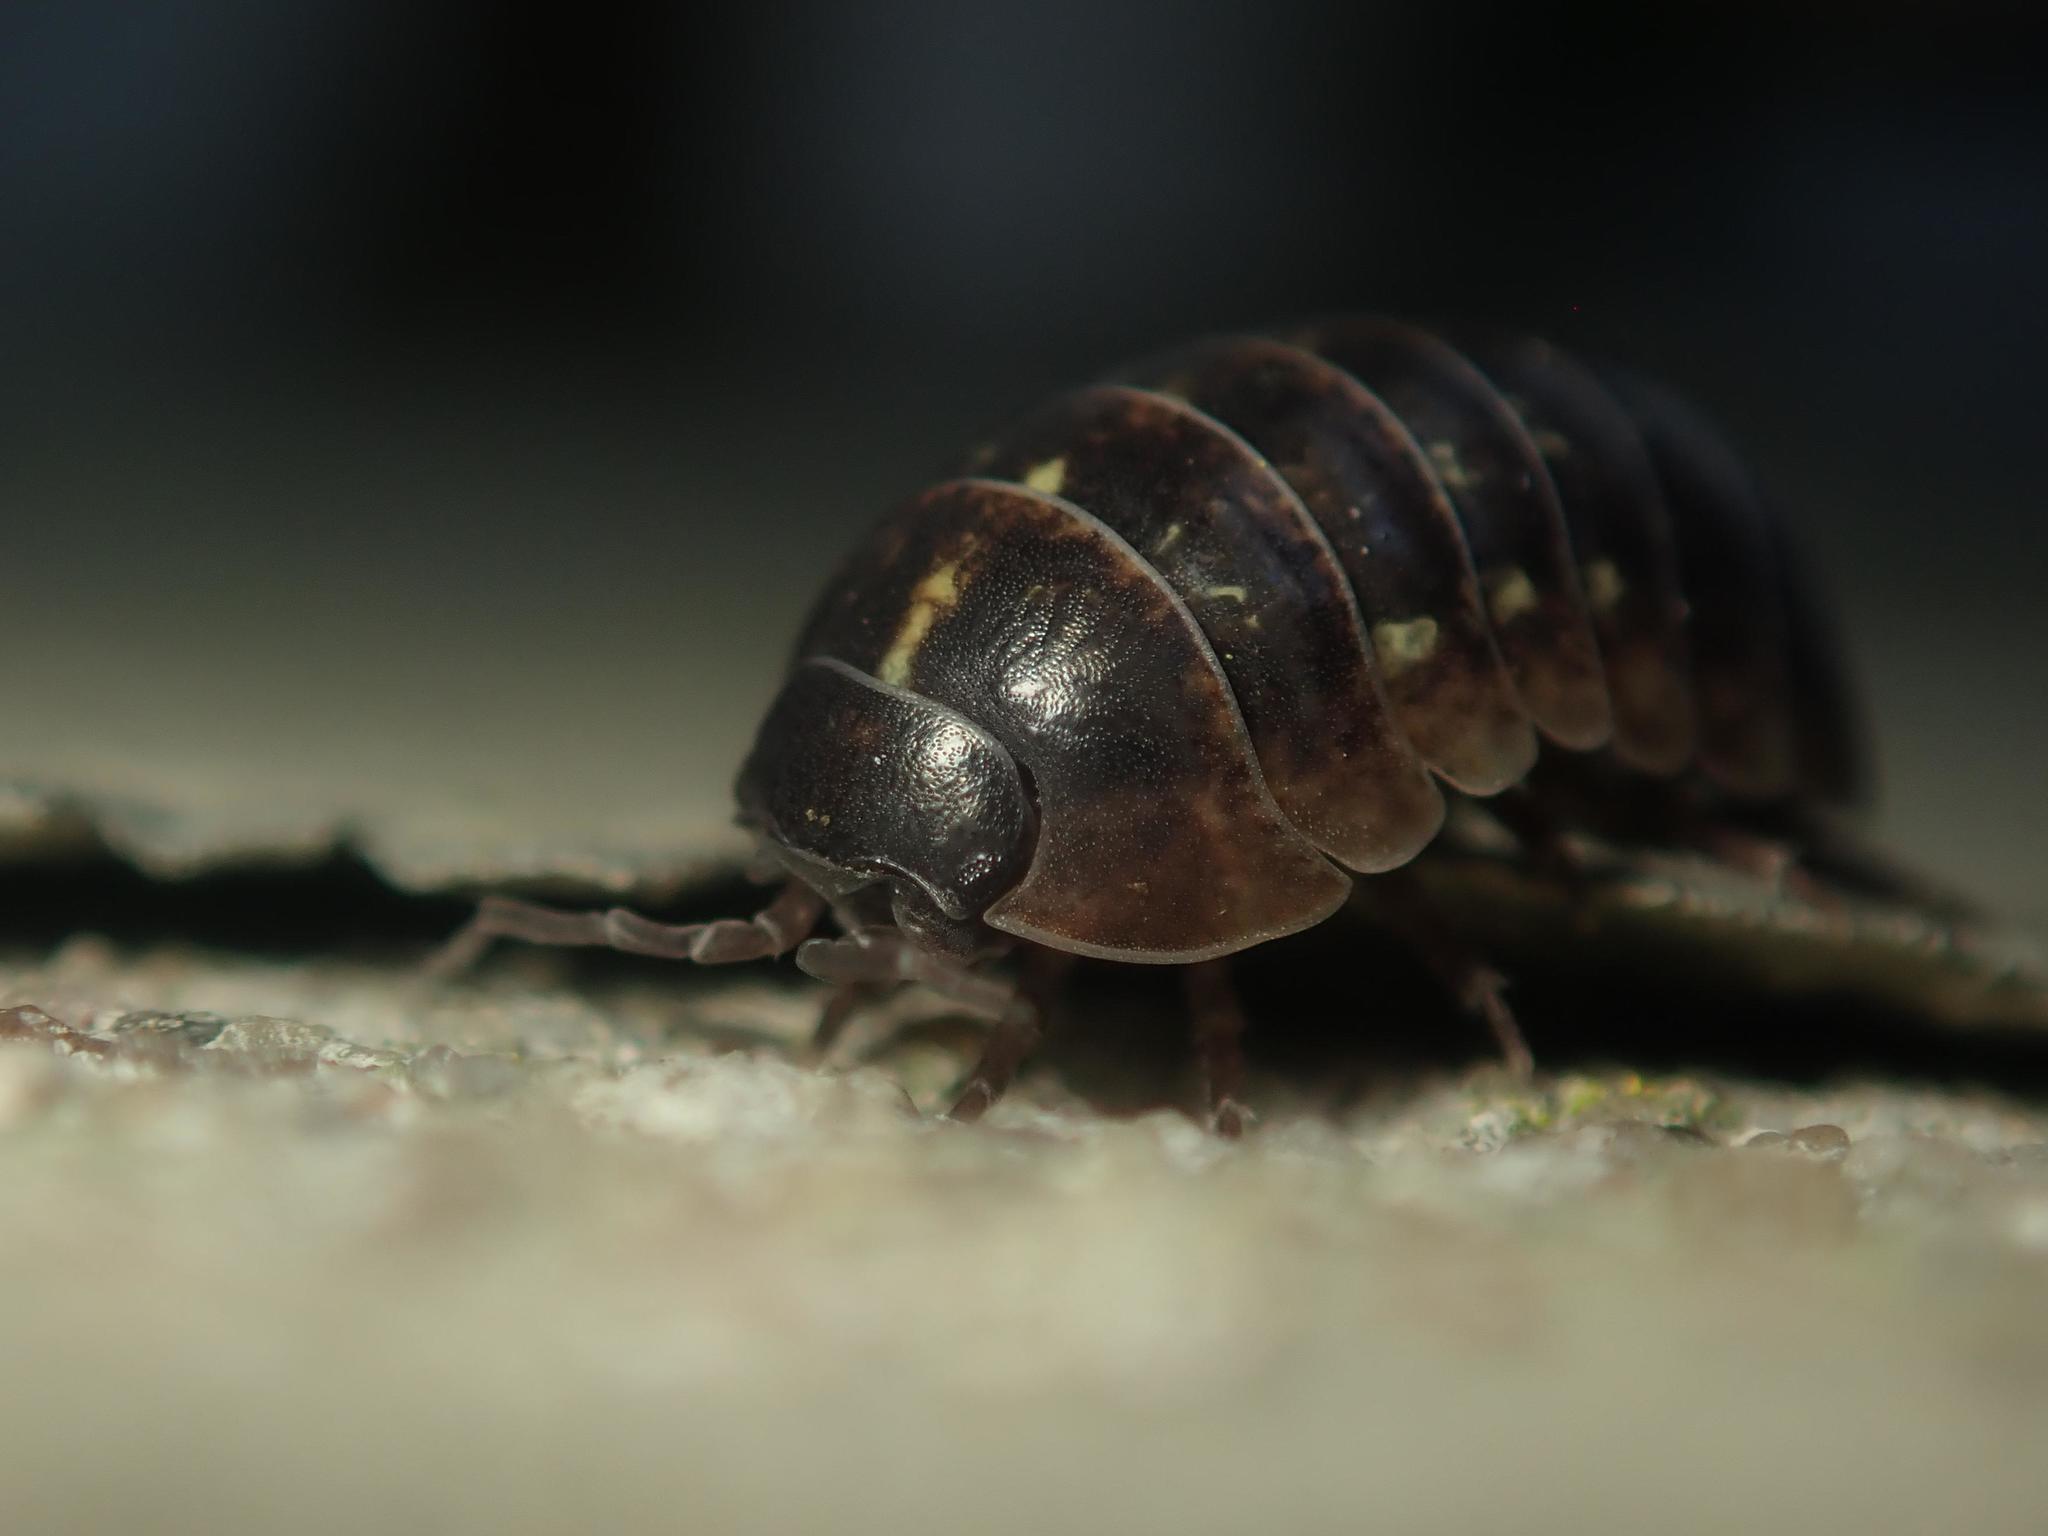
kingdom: Animalia
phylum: Arthropoda
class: Malacostraca
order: Isopoda
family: Armadillidiidae
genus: Armadillidium
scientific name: Armadillidium vulgare
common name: Common pill woodlouse
